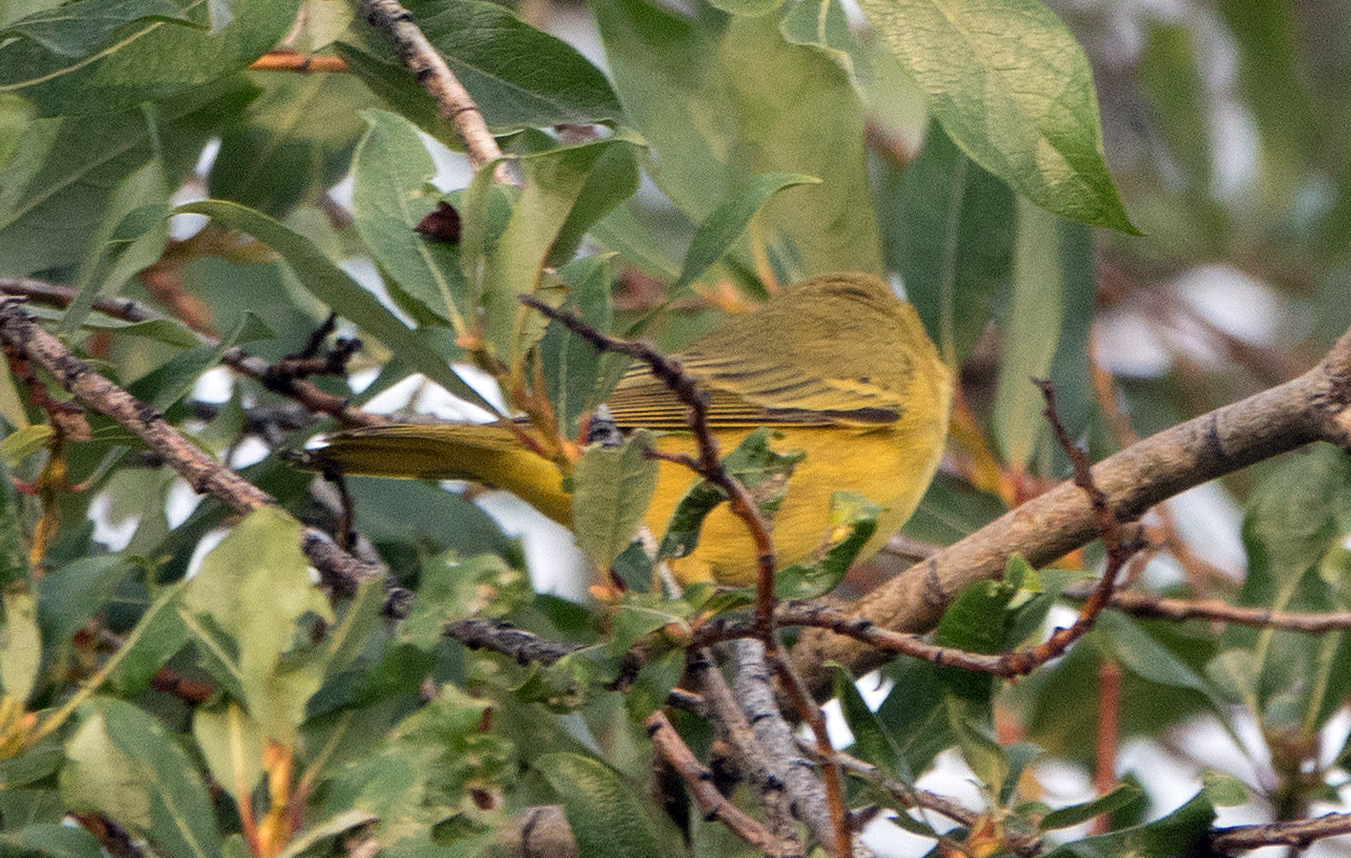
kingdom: Animalia
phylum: Chordata
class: Aves
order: Passeriformes
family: Parulidae
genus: Setophaga
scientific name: Setophaga petechia
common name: Yellow warbler
